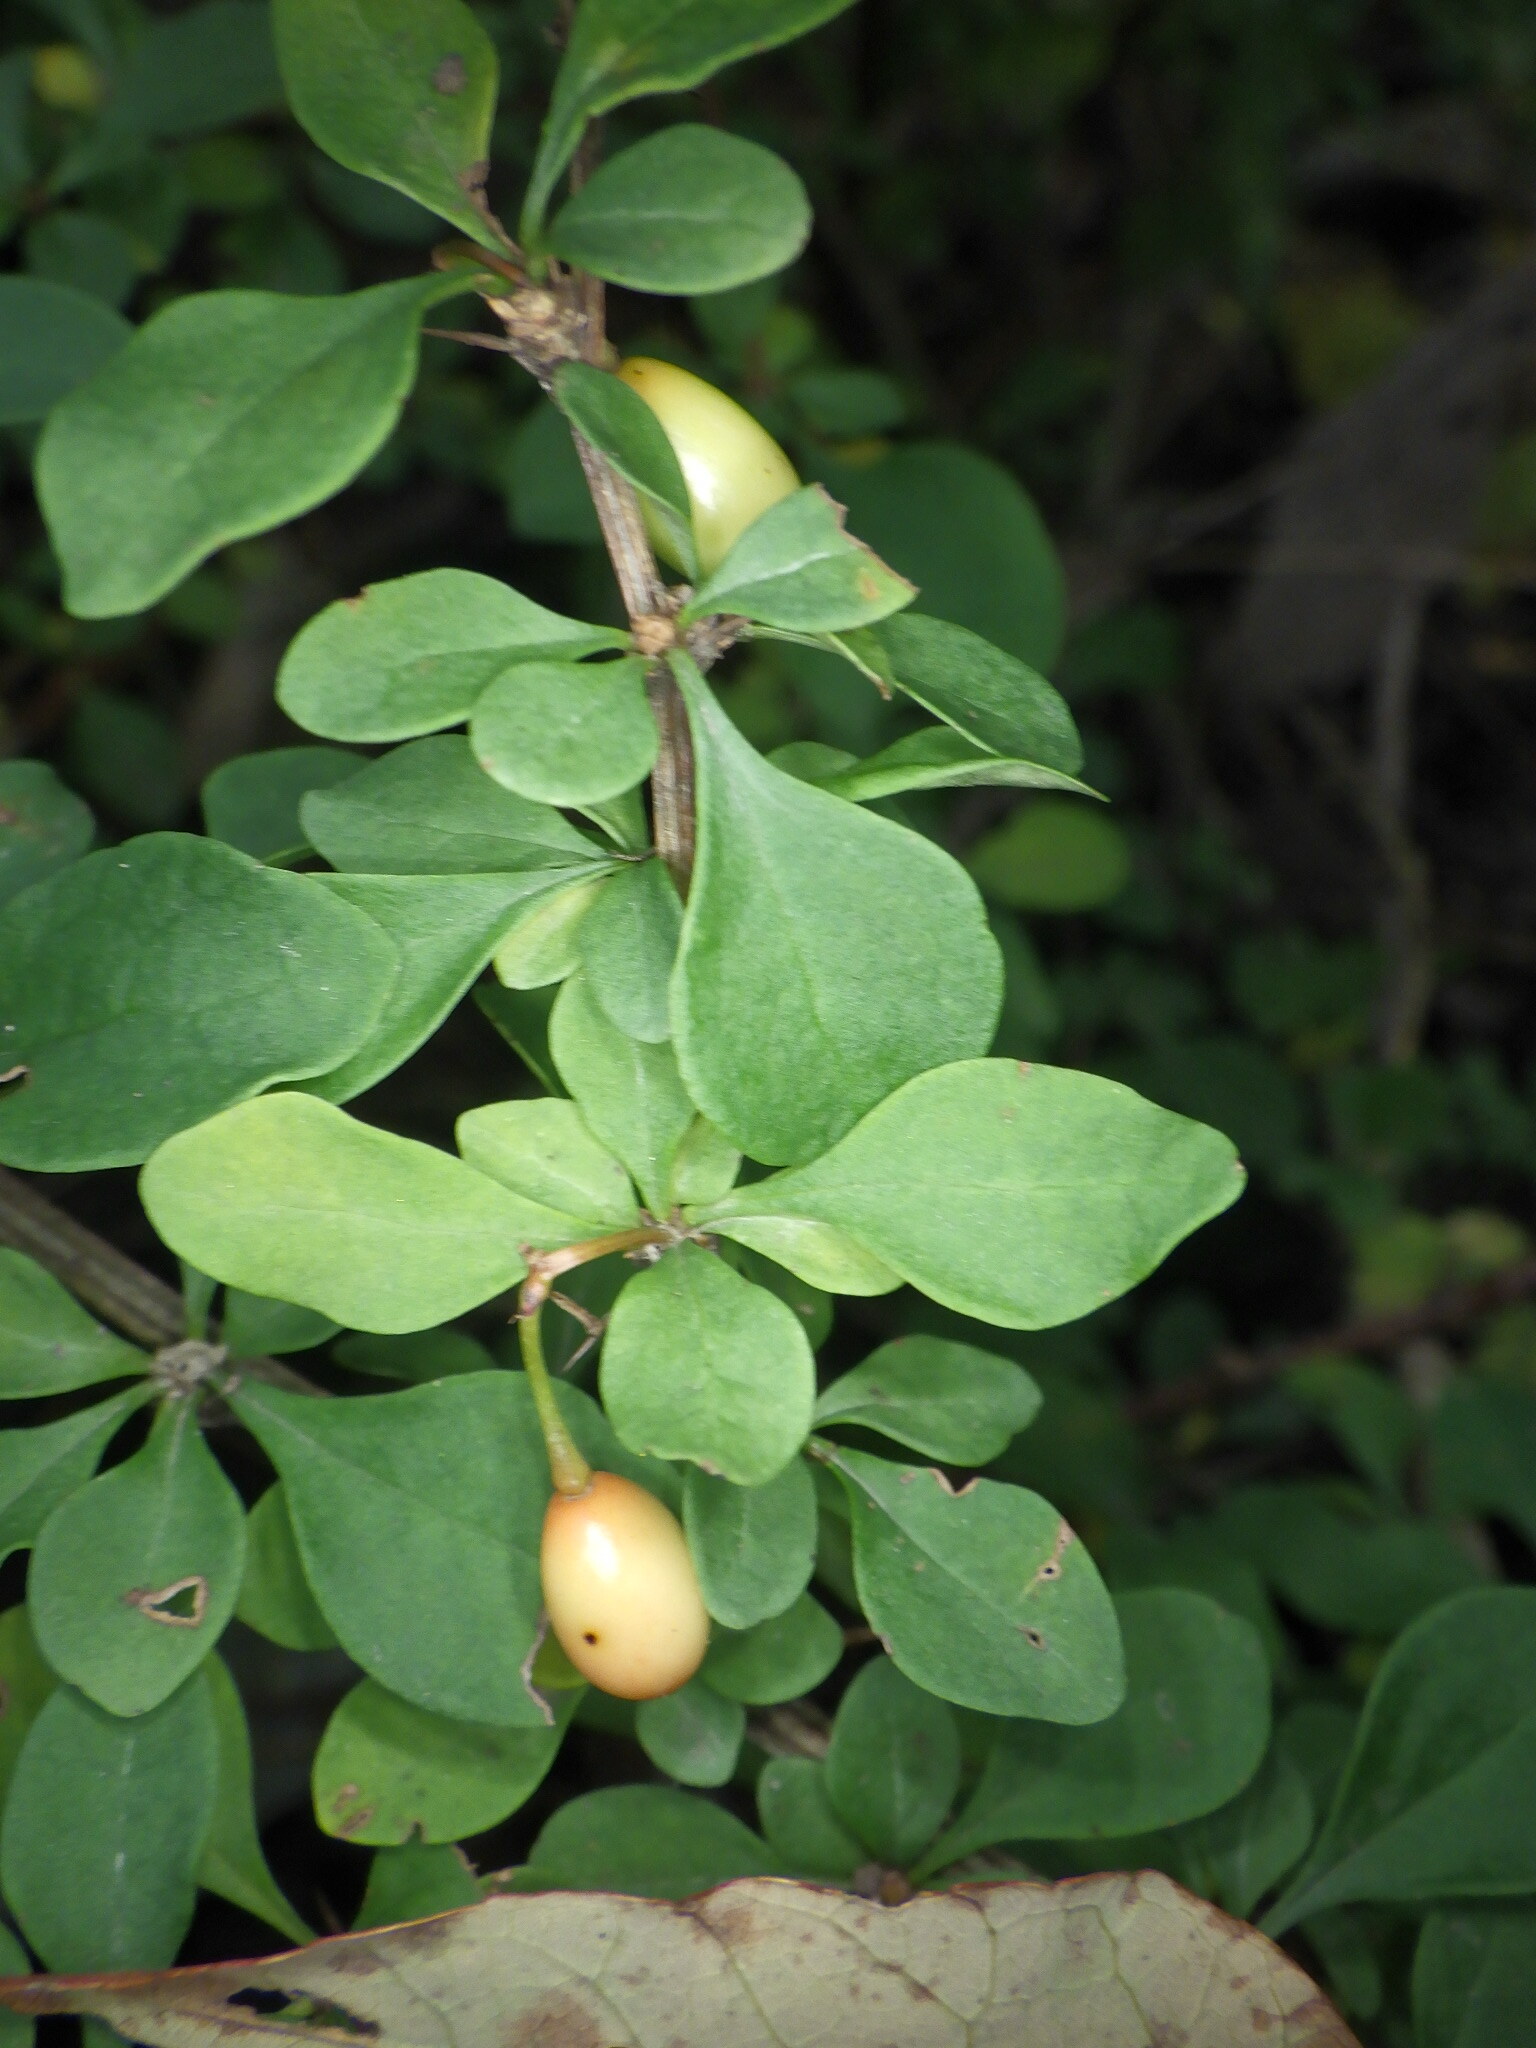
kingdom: Plantae
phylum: Tracheophyta
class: Magnoliopsida
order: Ranunculales
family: Berberidaceae
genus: Berberis
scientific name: Berberis thunbergii
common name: Japanese barberry
